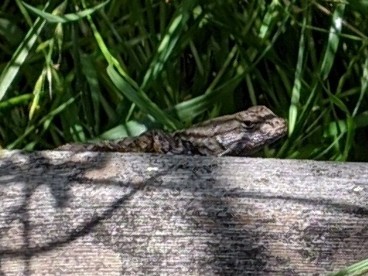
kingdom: Animalia
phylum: Chordata
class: Squamata
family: Phrynosomatidae
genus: Sceloporus
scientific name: Sceloporus occidentalis
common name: Western fence lizard
